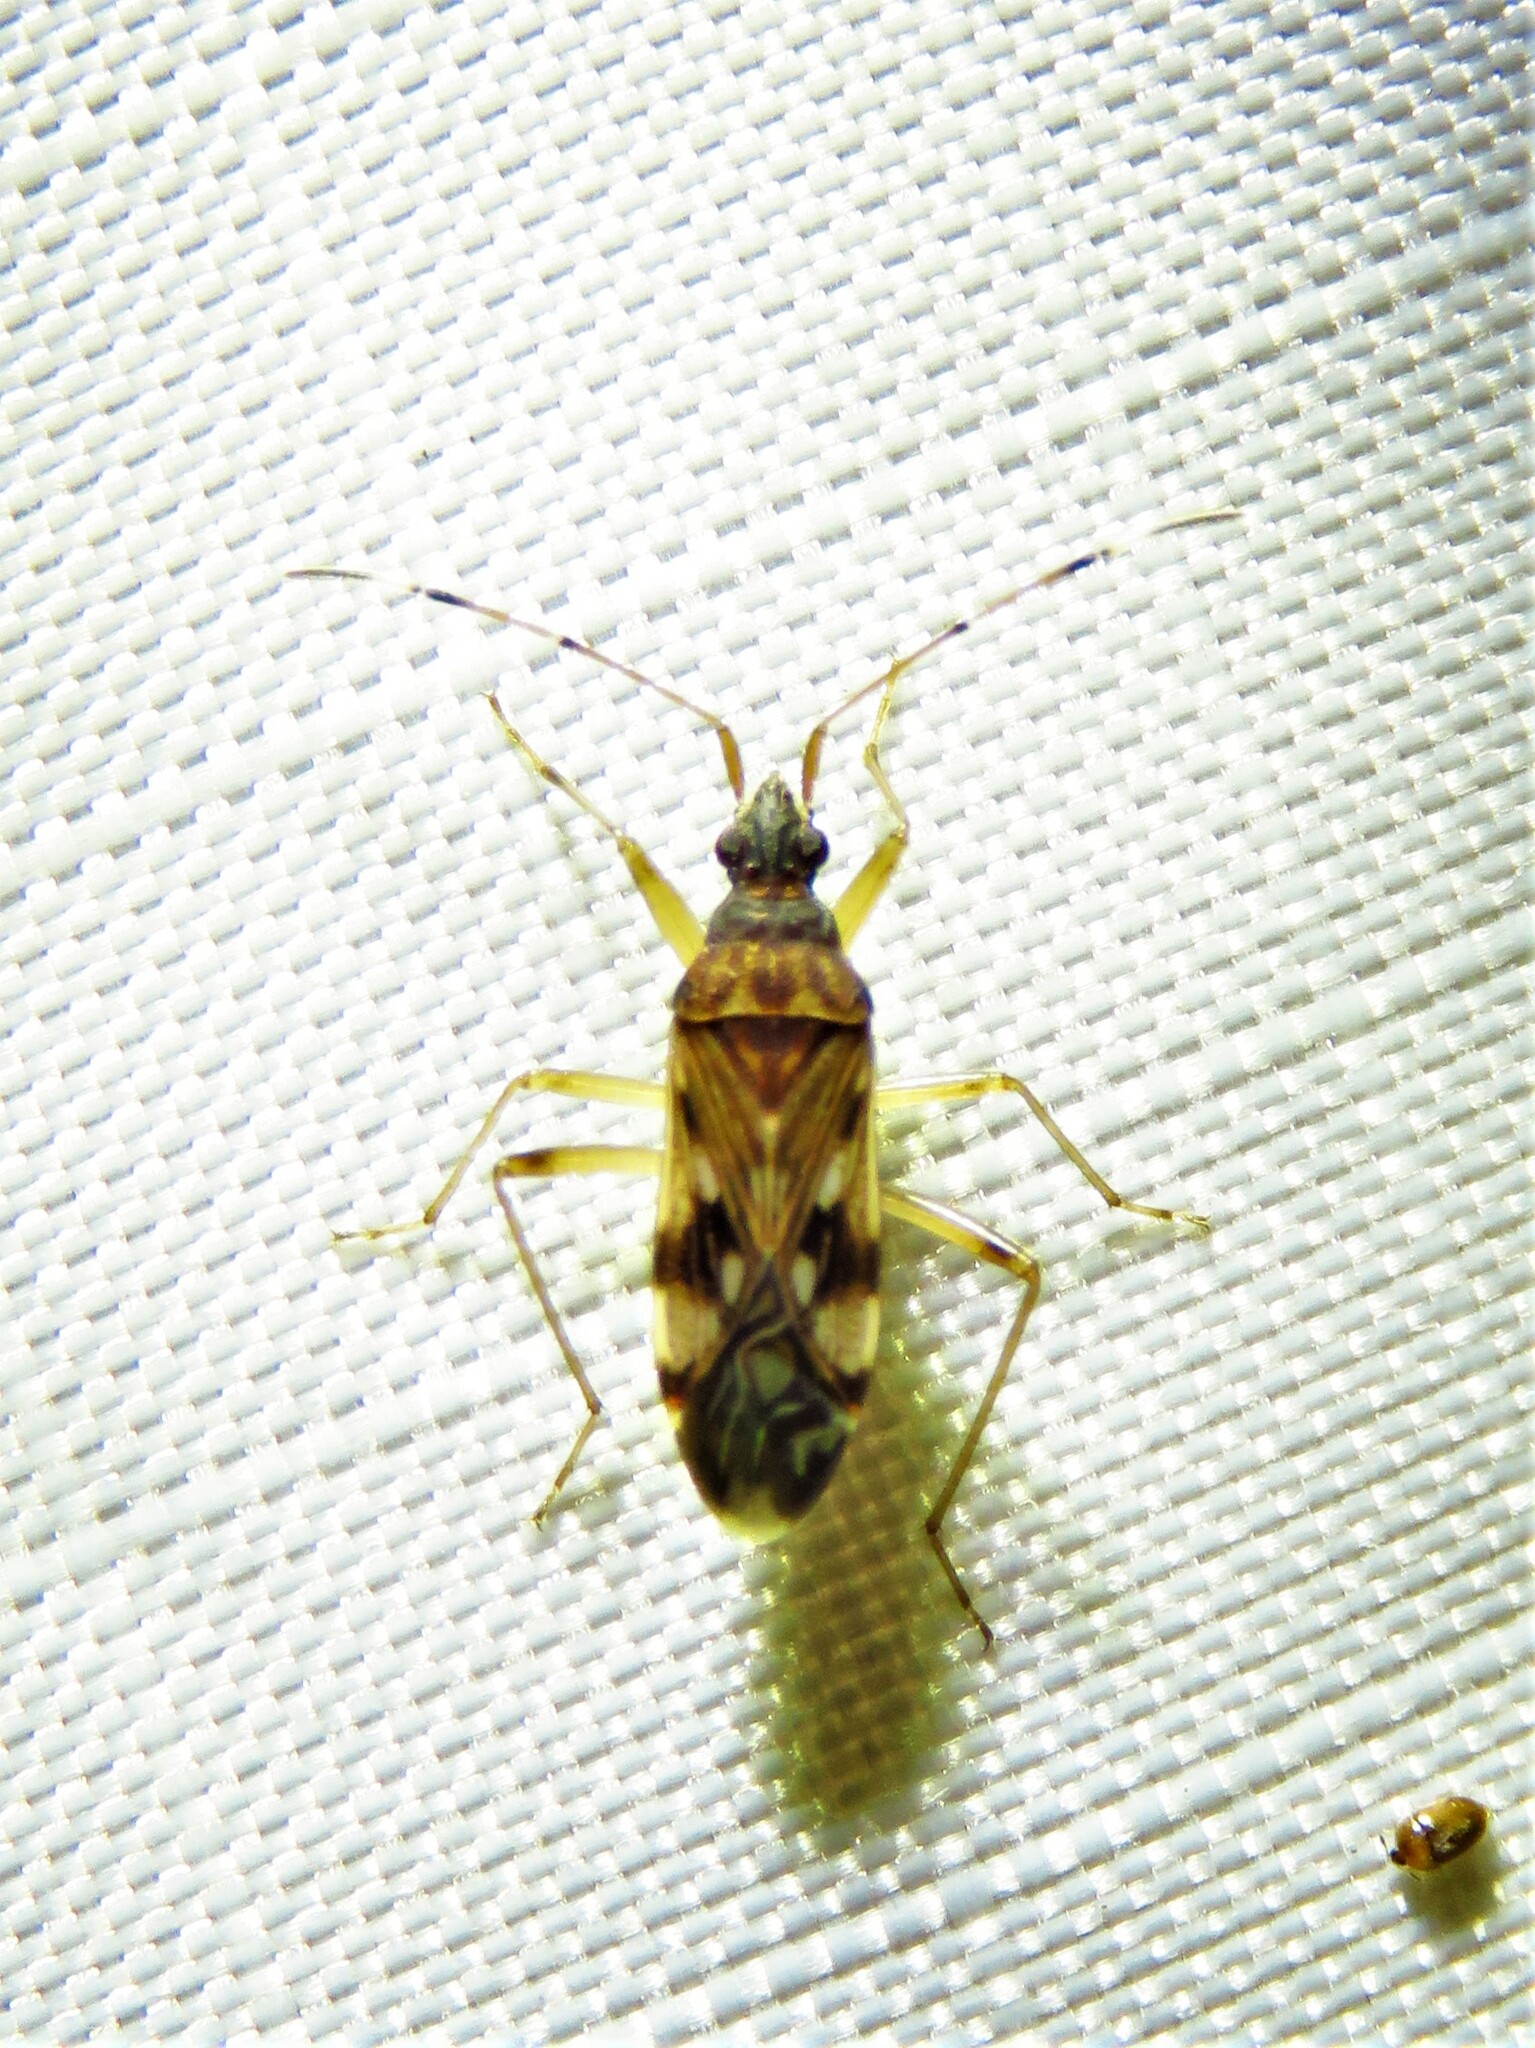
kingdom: Animalia
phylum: Arthropoda
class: Insecta
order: Hemiptera
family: Rhyparochromidae
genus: Ozophora
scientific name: Ozophora picturata
